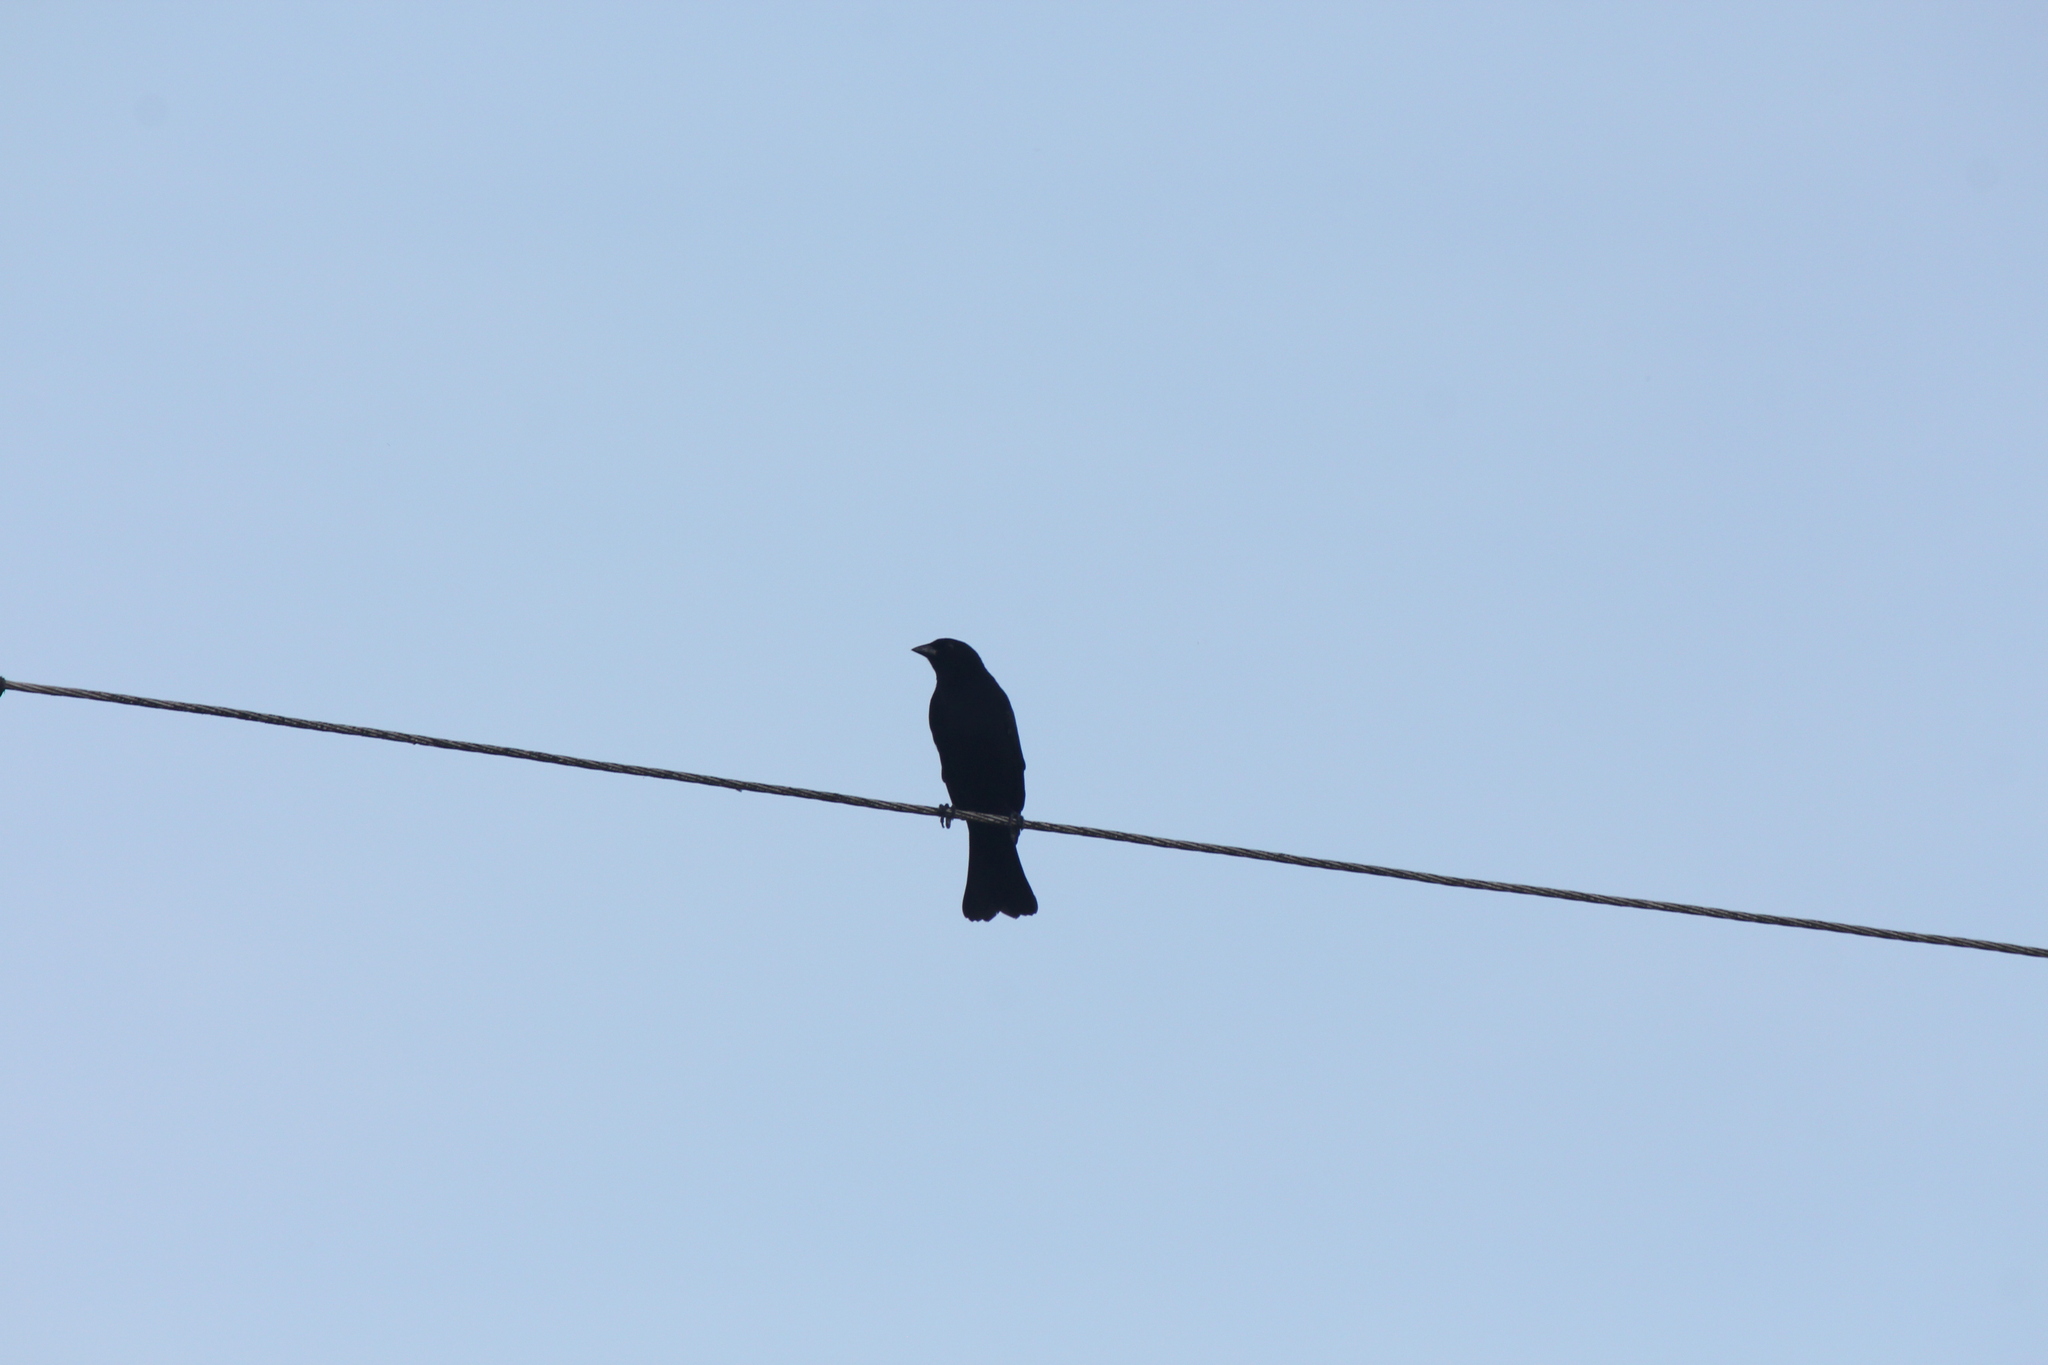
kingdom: Animalia
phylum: Chordata
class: Aves
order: Passeriformes
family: Icteridae
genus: Molothrus
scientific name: Molothrus bonariensis
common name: Shiny cowbird
